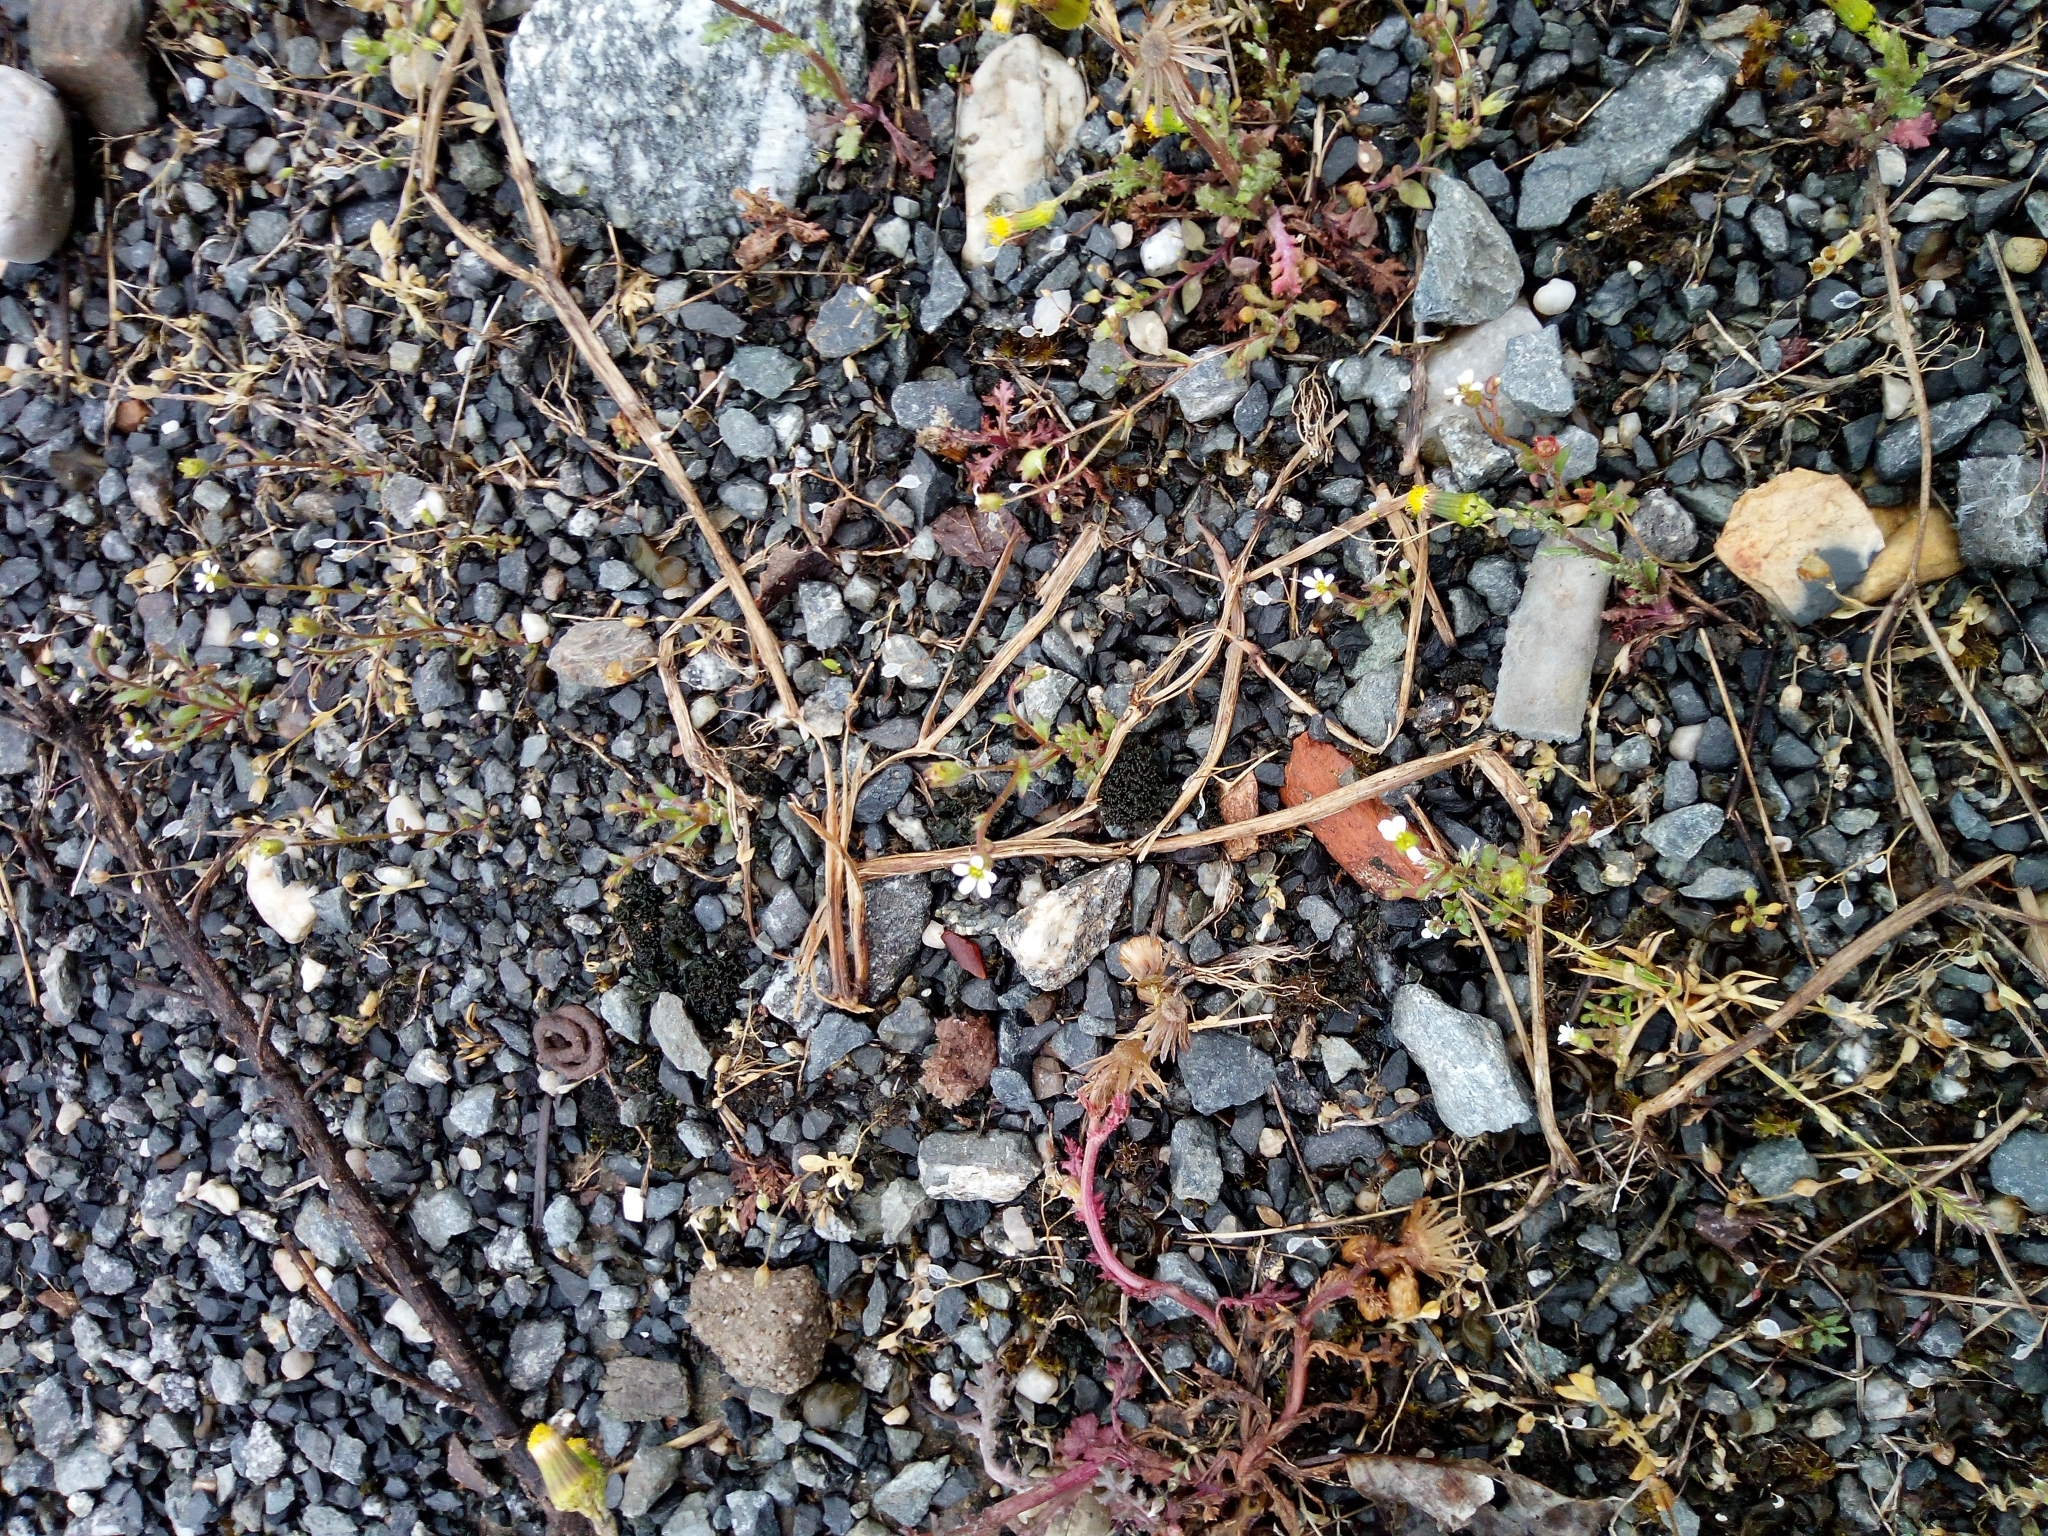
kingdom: Plantae
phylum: Tracheophyta
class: Magnoliopsida
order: Saxifragales
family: Saxifragaceae
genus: Saxifraga
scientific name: Saxifraga tridactylites
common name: Rue-leaved saxifrage
